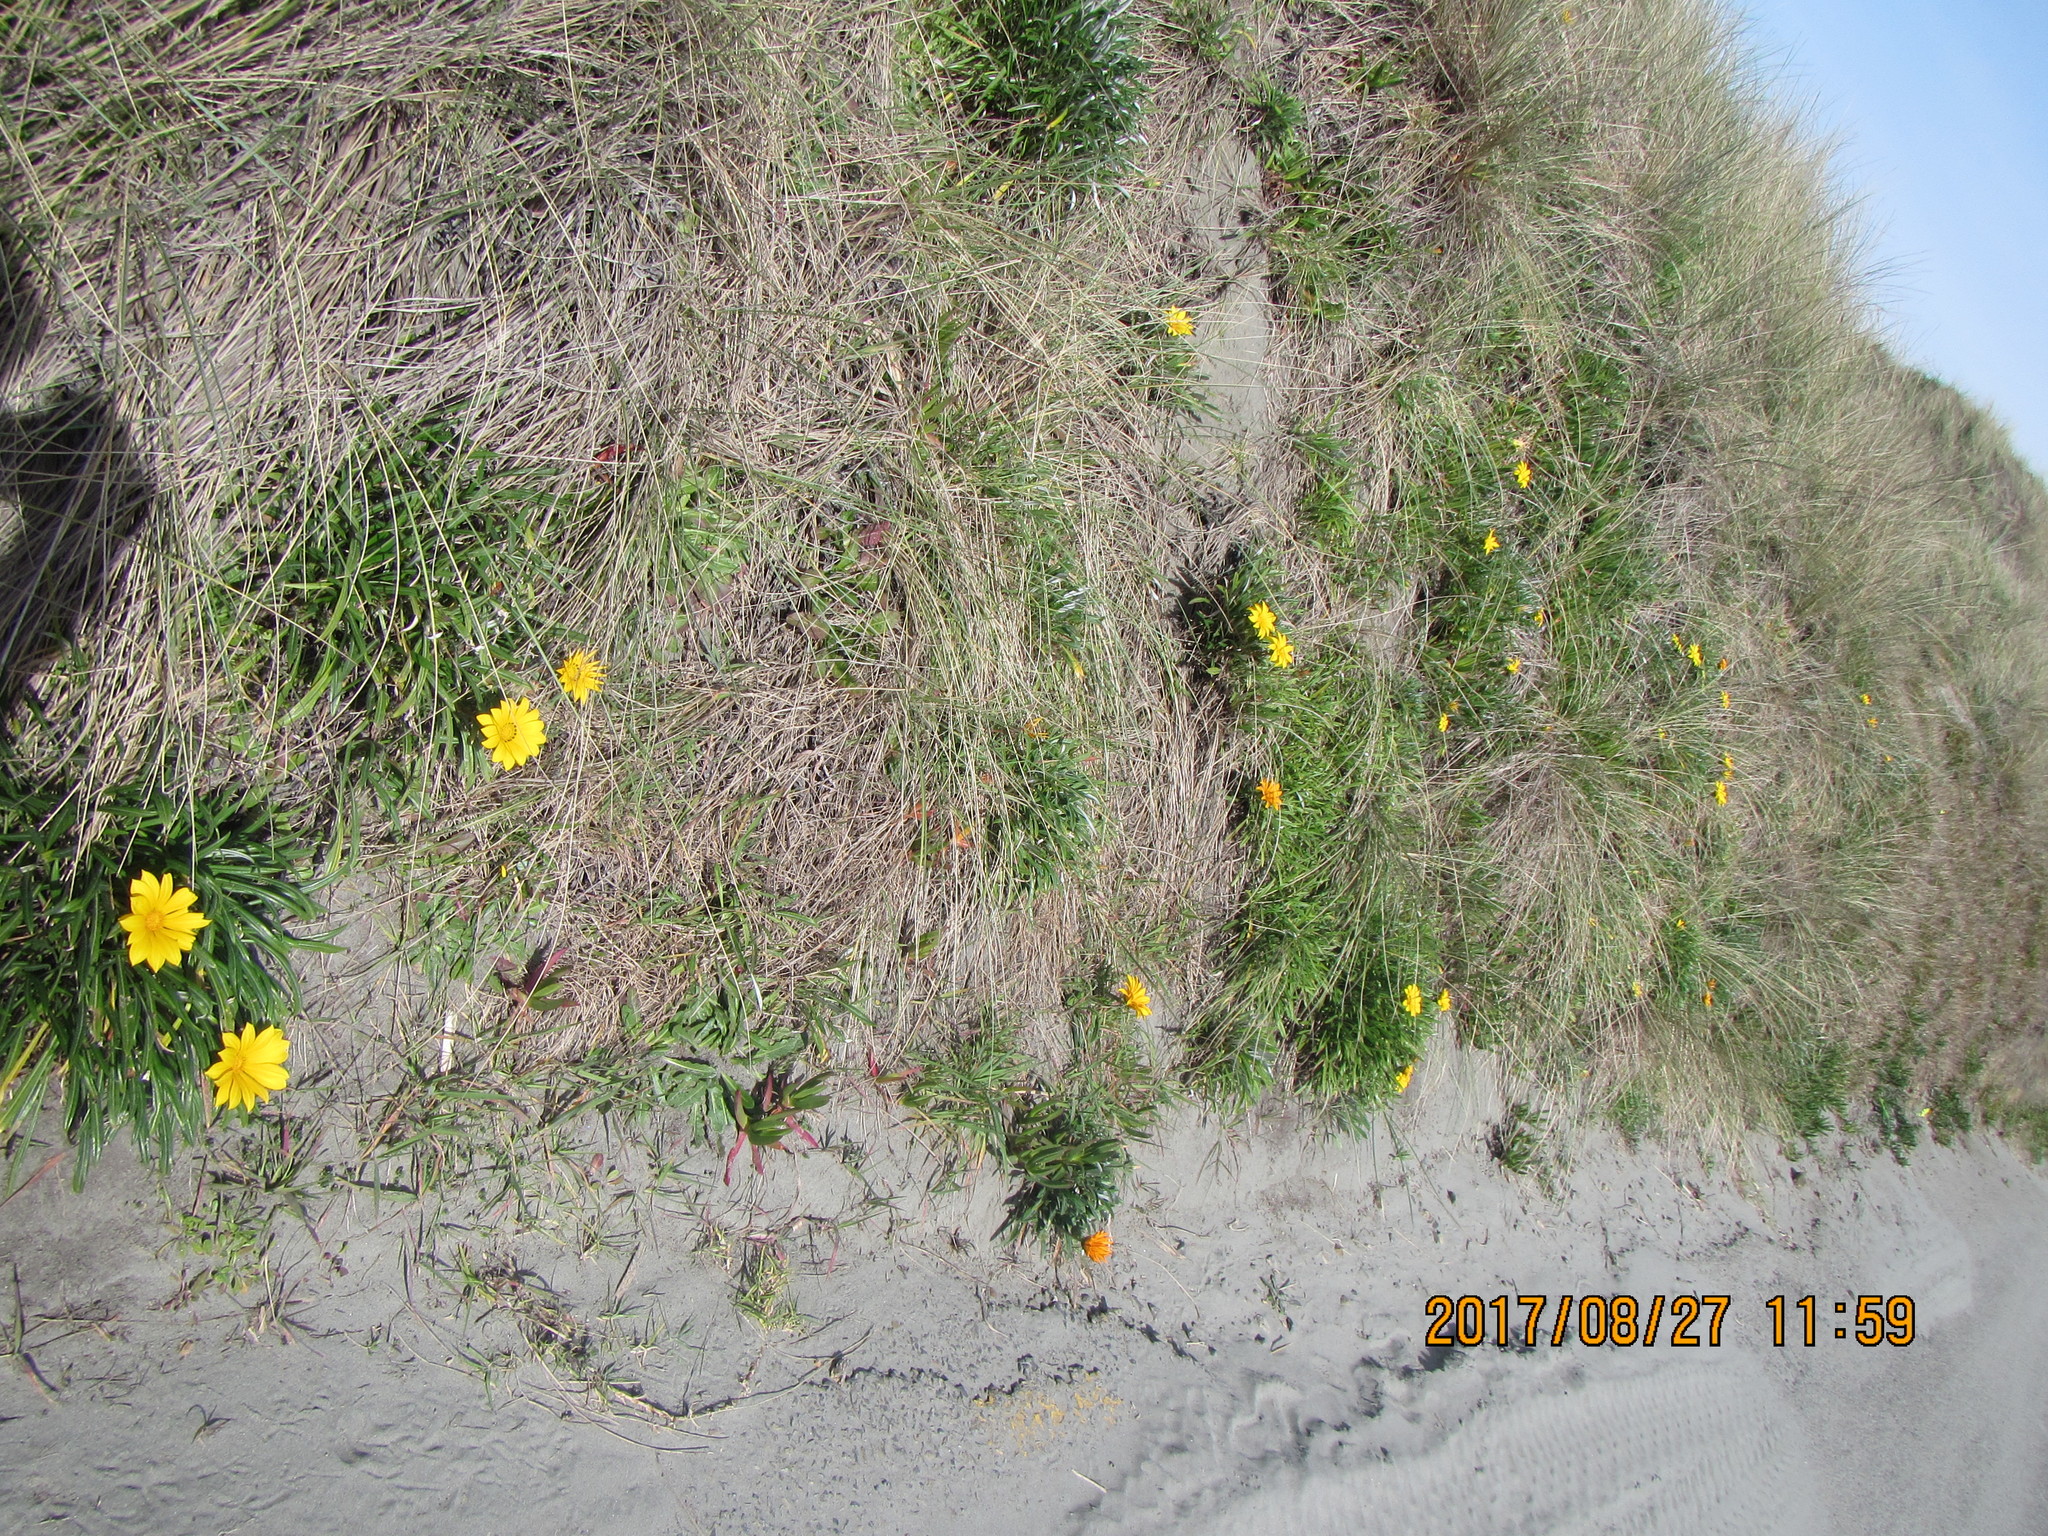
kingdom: Plantae
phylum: Tracheophyta
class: Magnoliopsida
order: Asterales
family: Asteraceae
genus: Gazania
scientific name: Gazania
